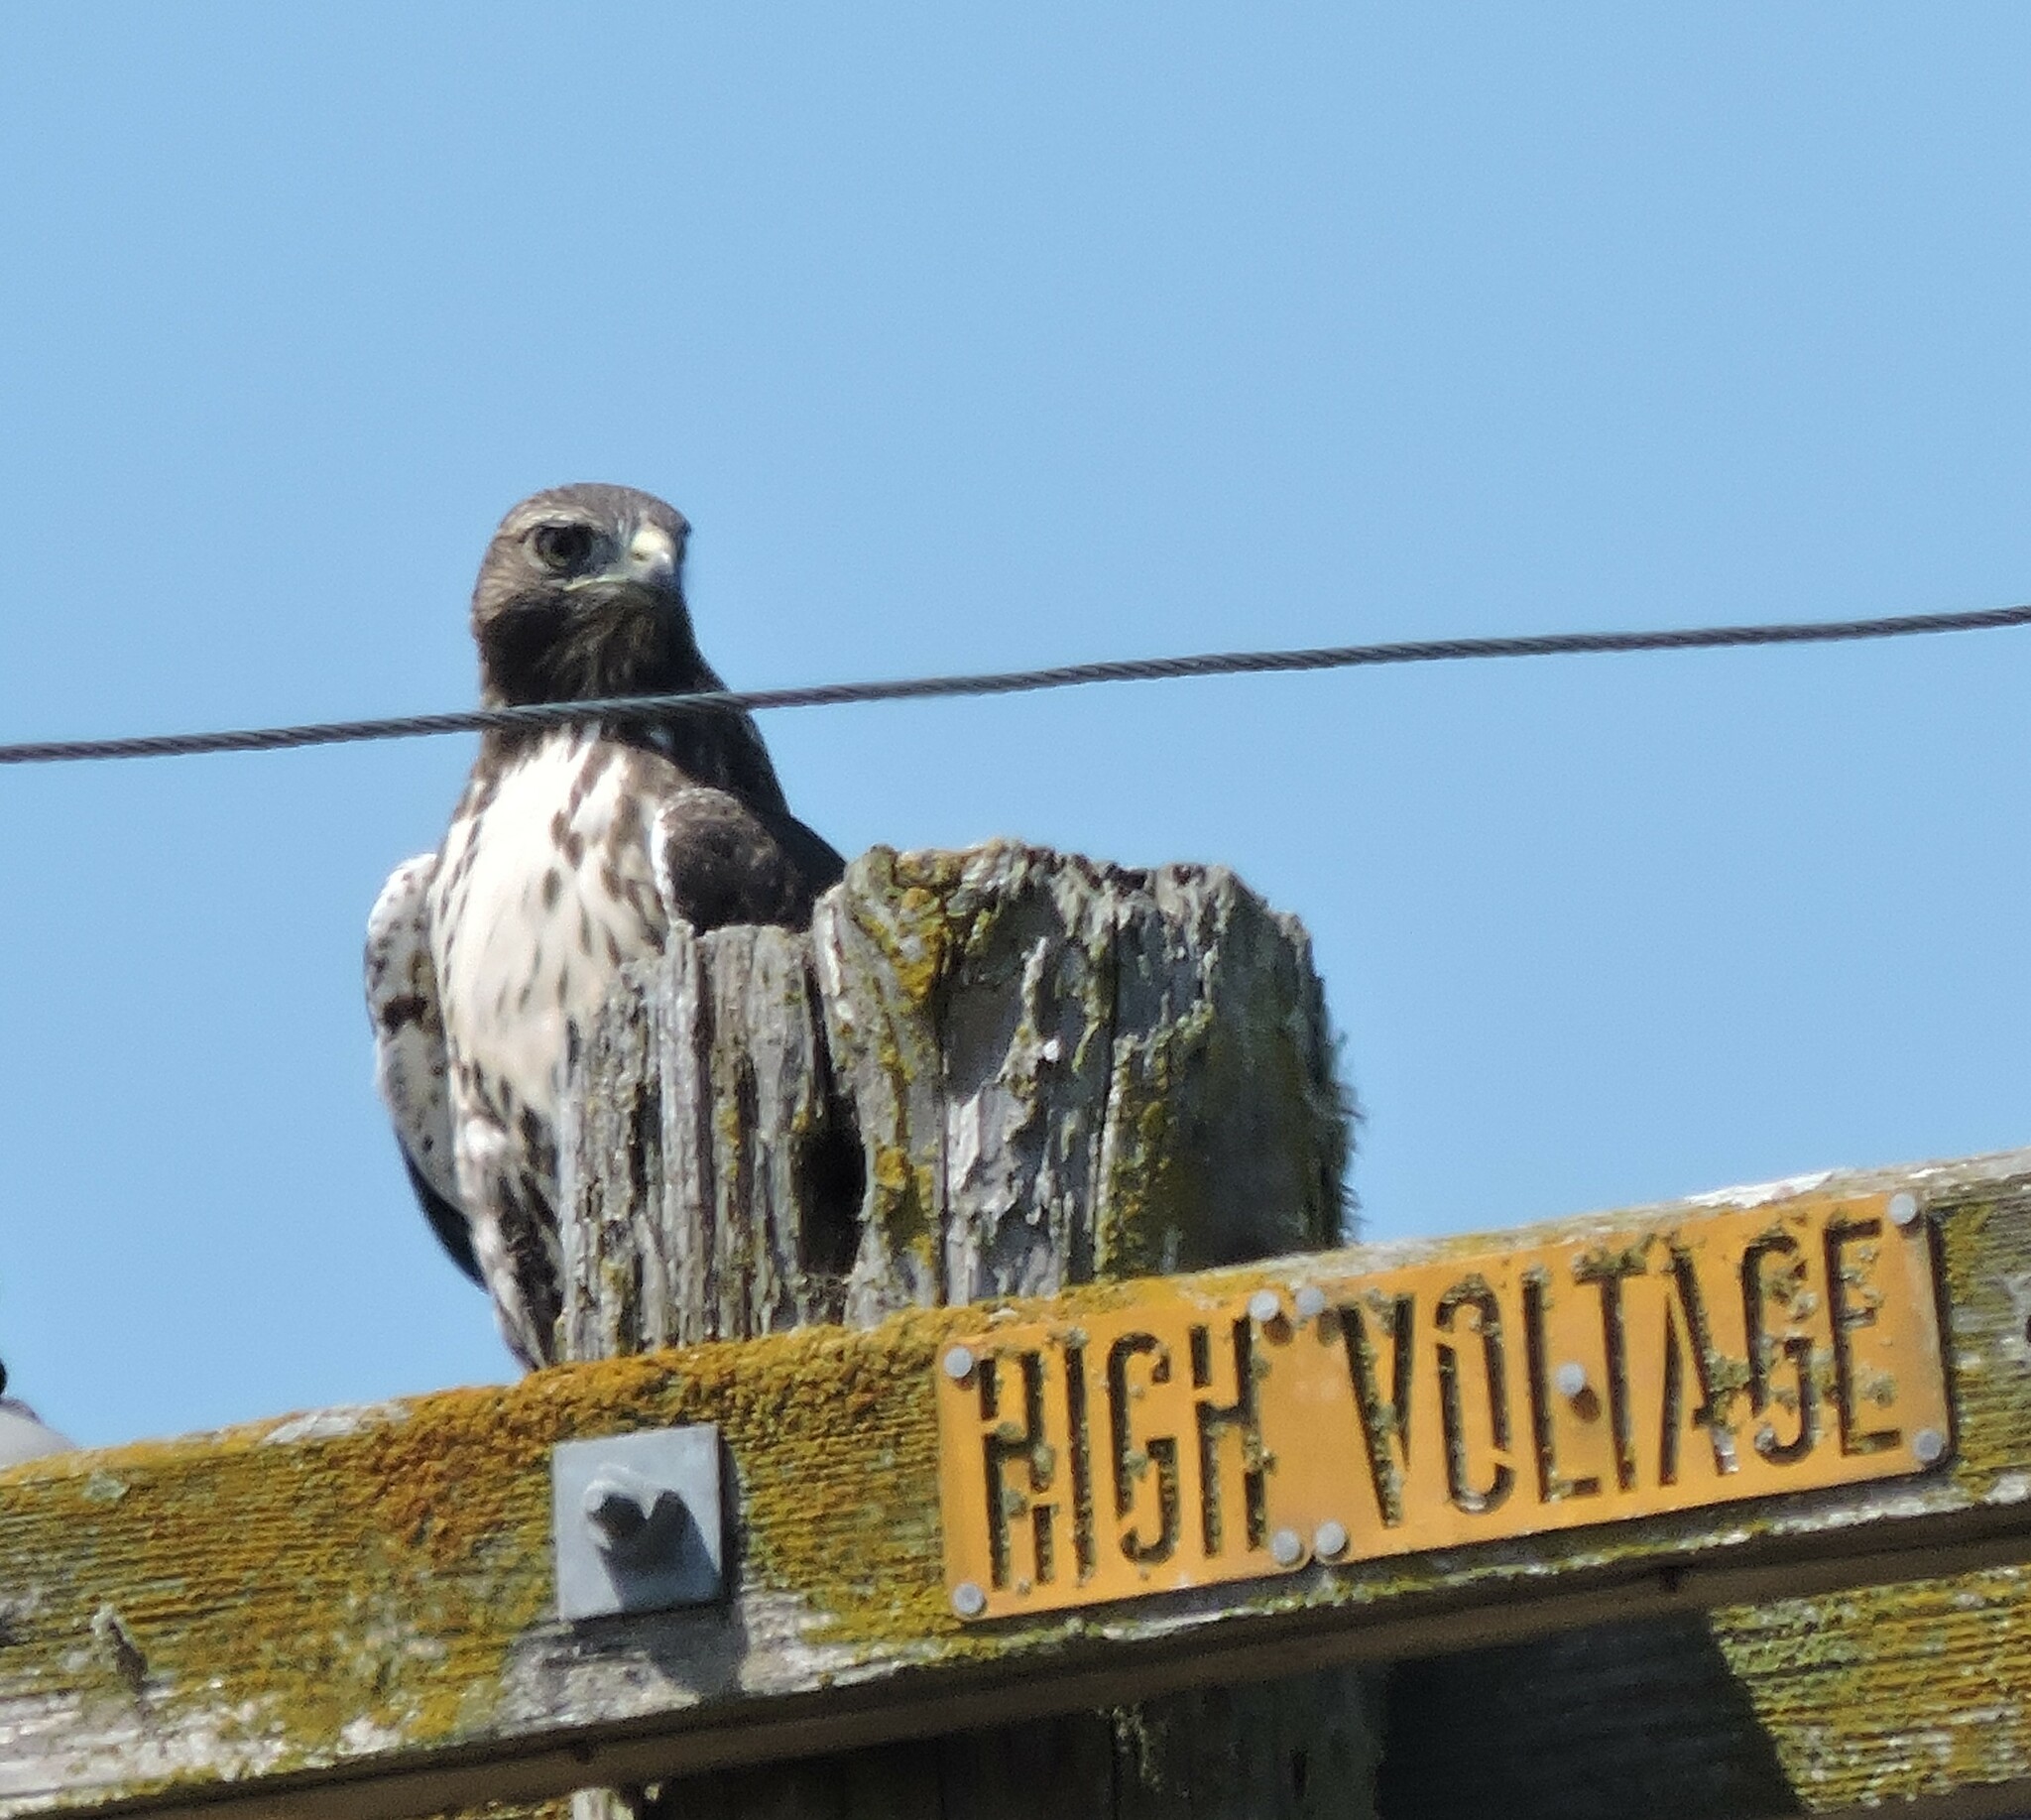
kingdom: Animalia
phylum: Chordata
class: Aves
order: Accipitriformes
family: Accipitridae
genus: Buteo
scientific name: Buteo jamaicensis
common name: Red-tailed hawk
